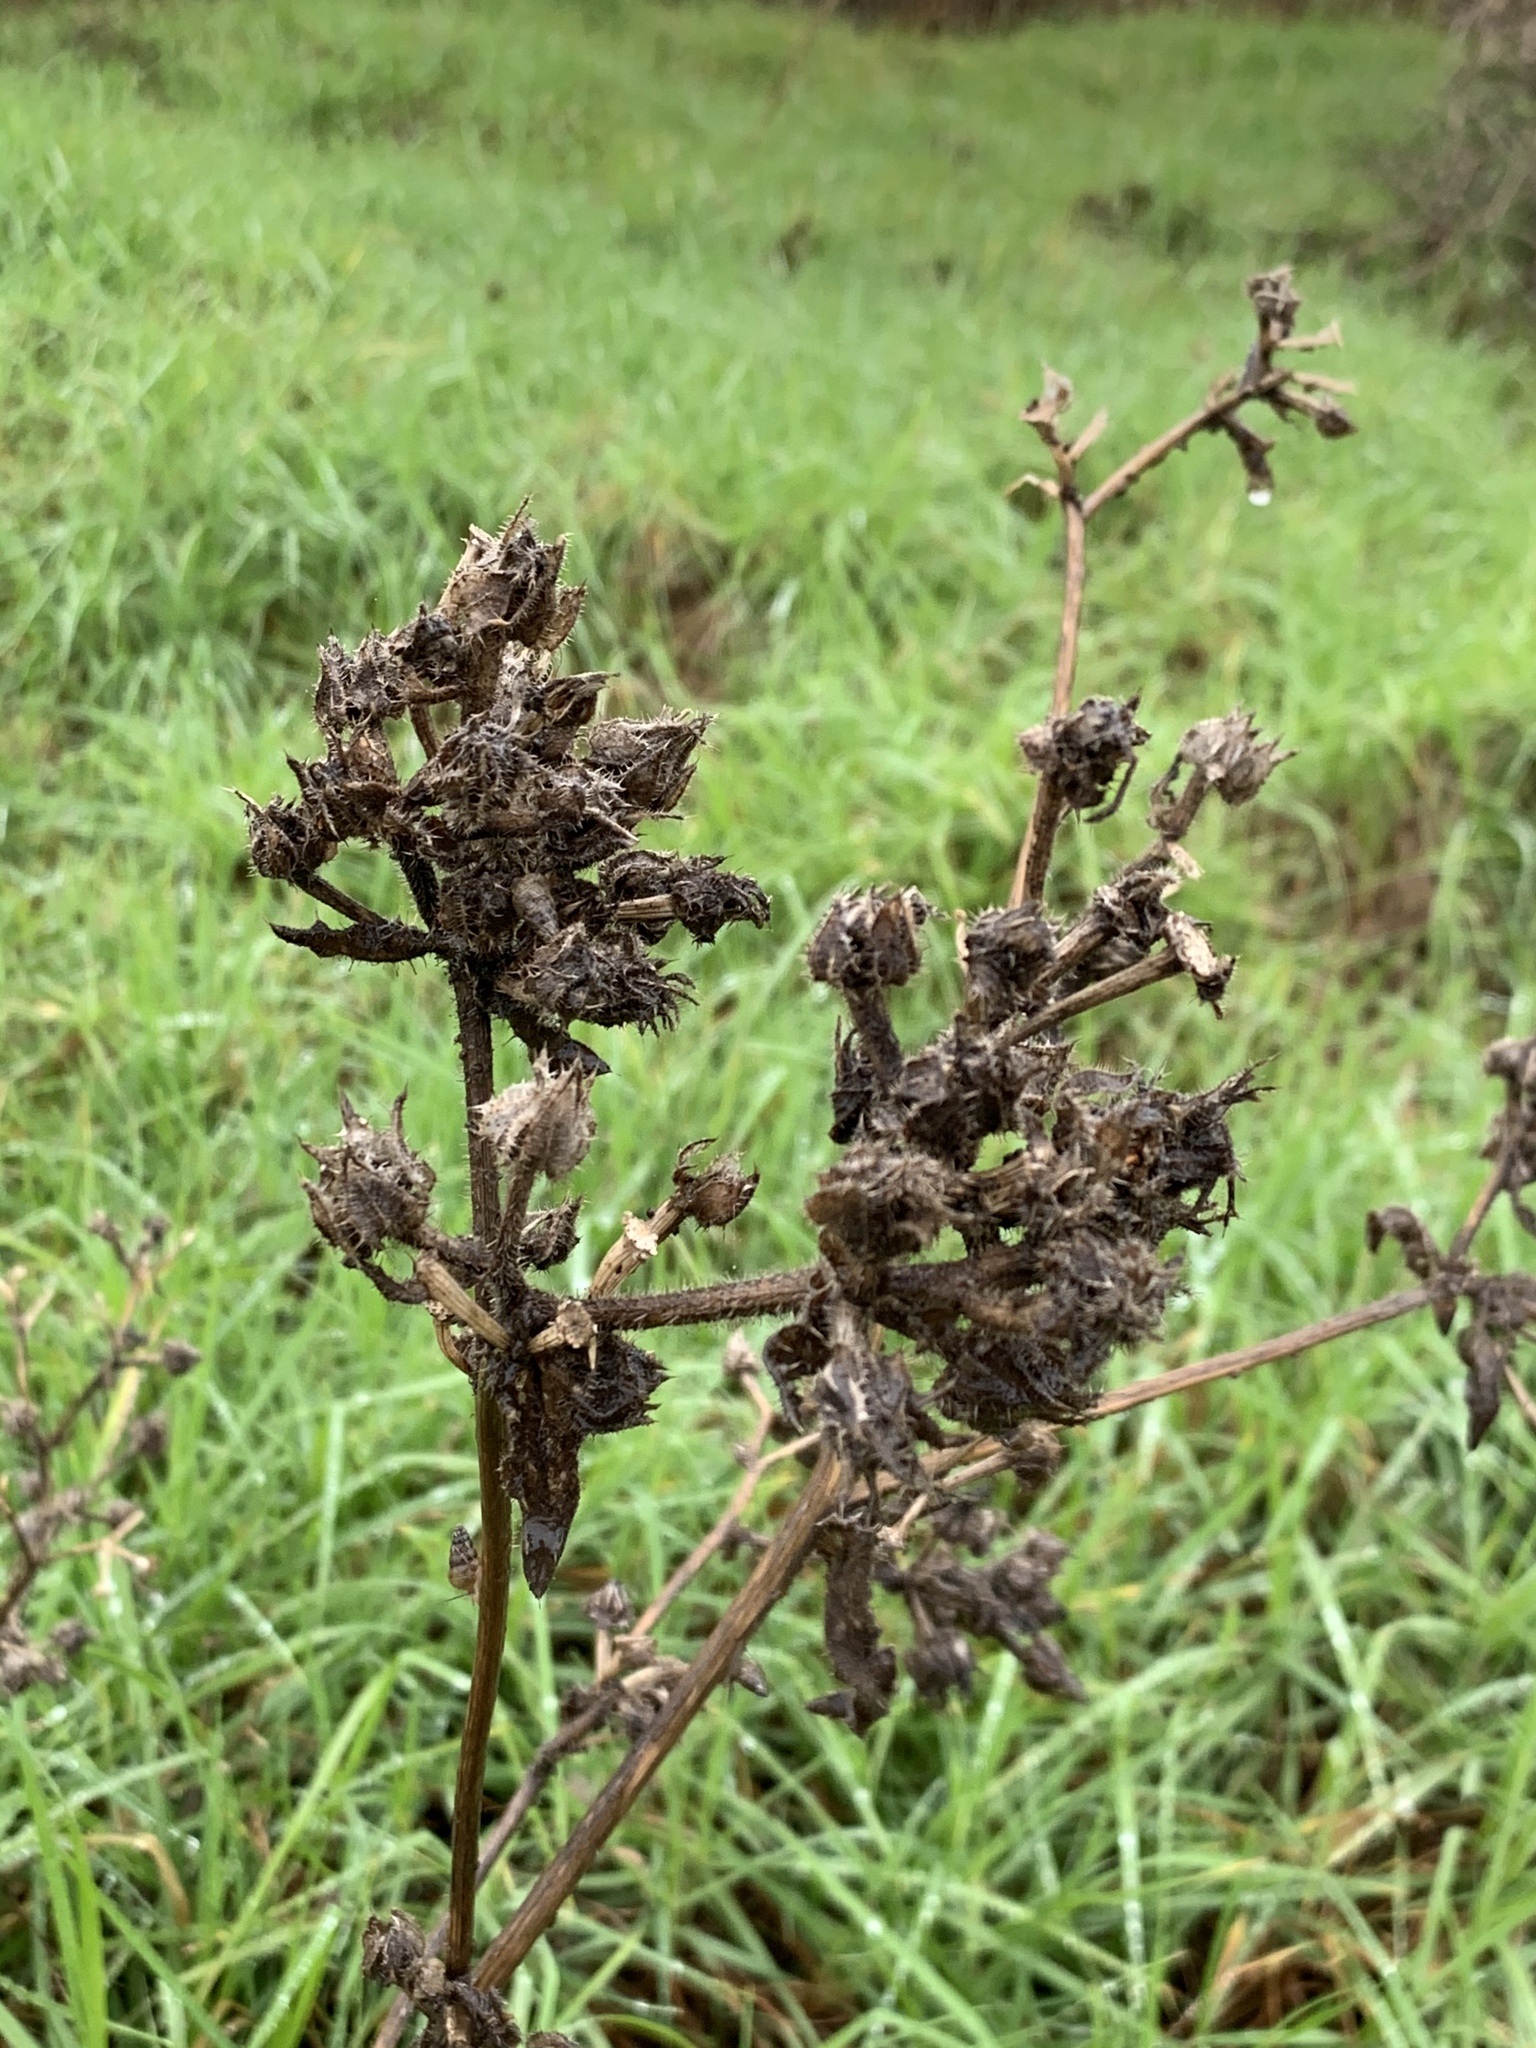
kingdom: Plantae
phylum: Tracheophyta
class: Magnoliopsida
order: Asterales
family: Asteraceae
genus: Helminthotheca
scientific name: Helminthotheca echioides
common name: Ox-tongue
